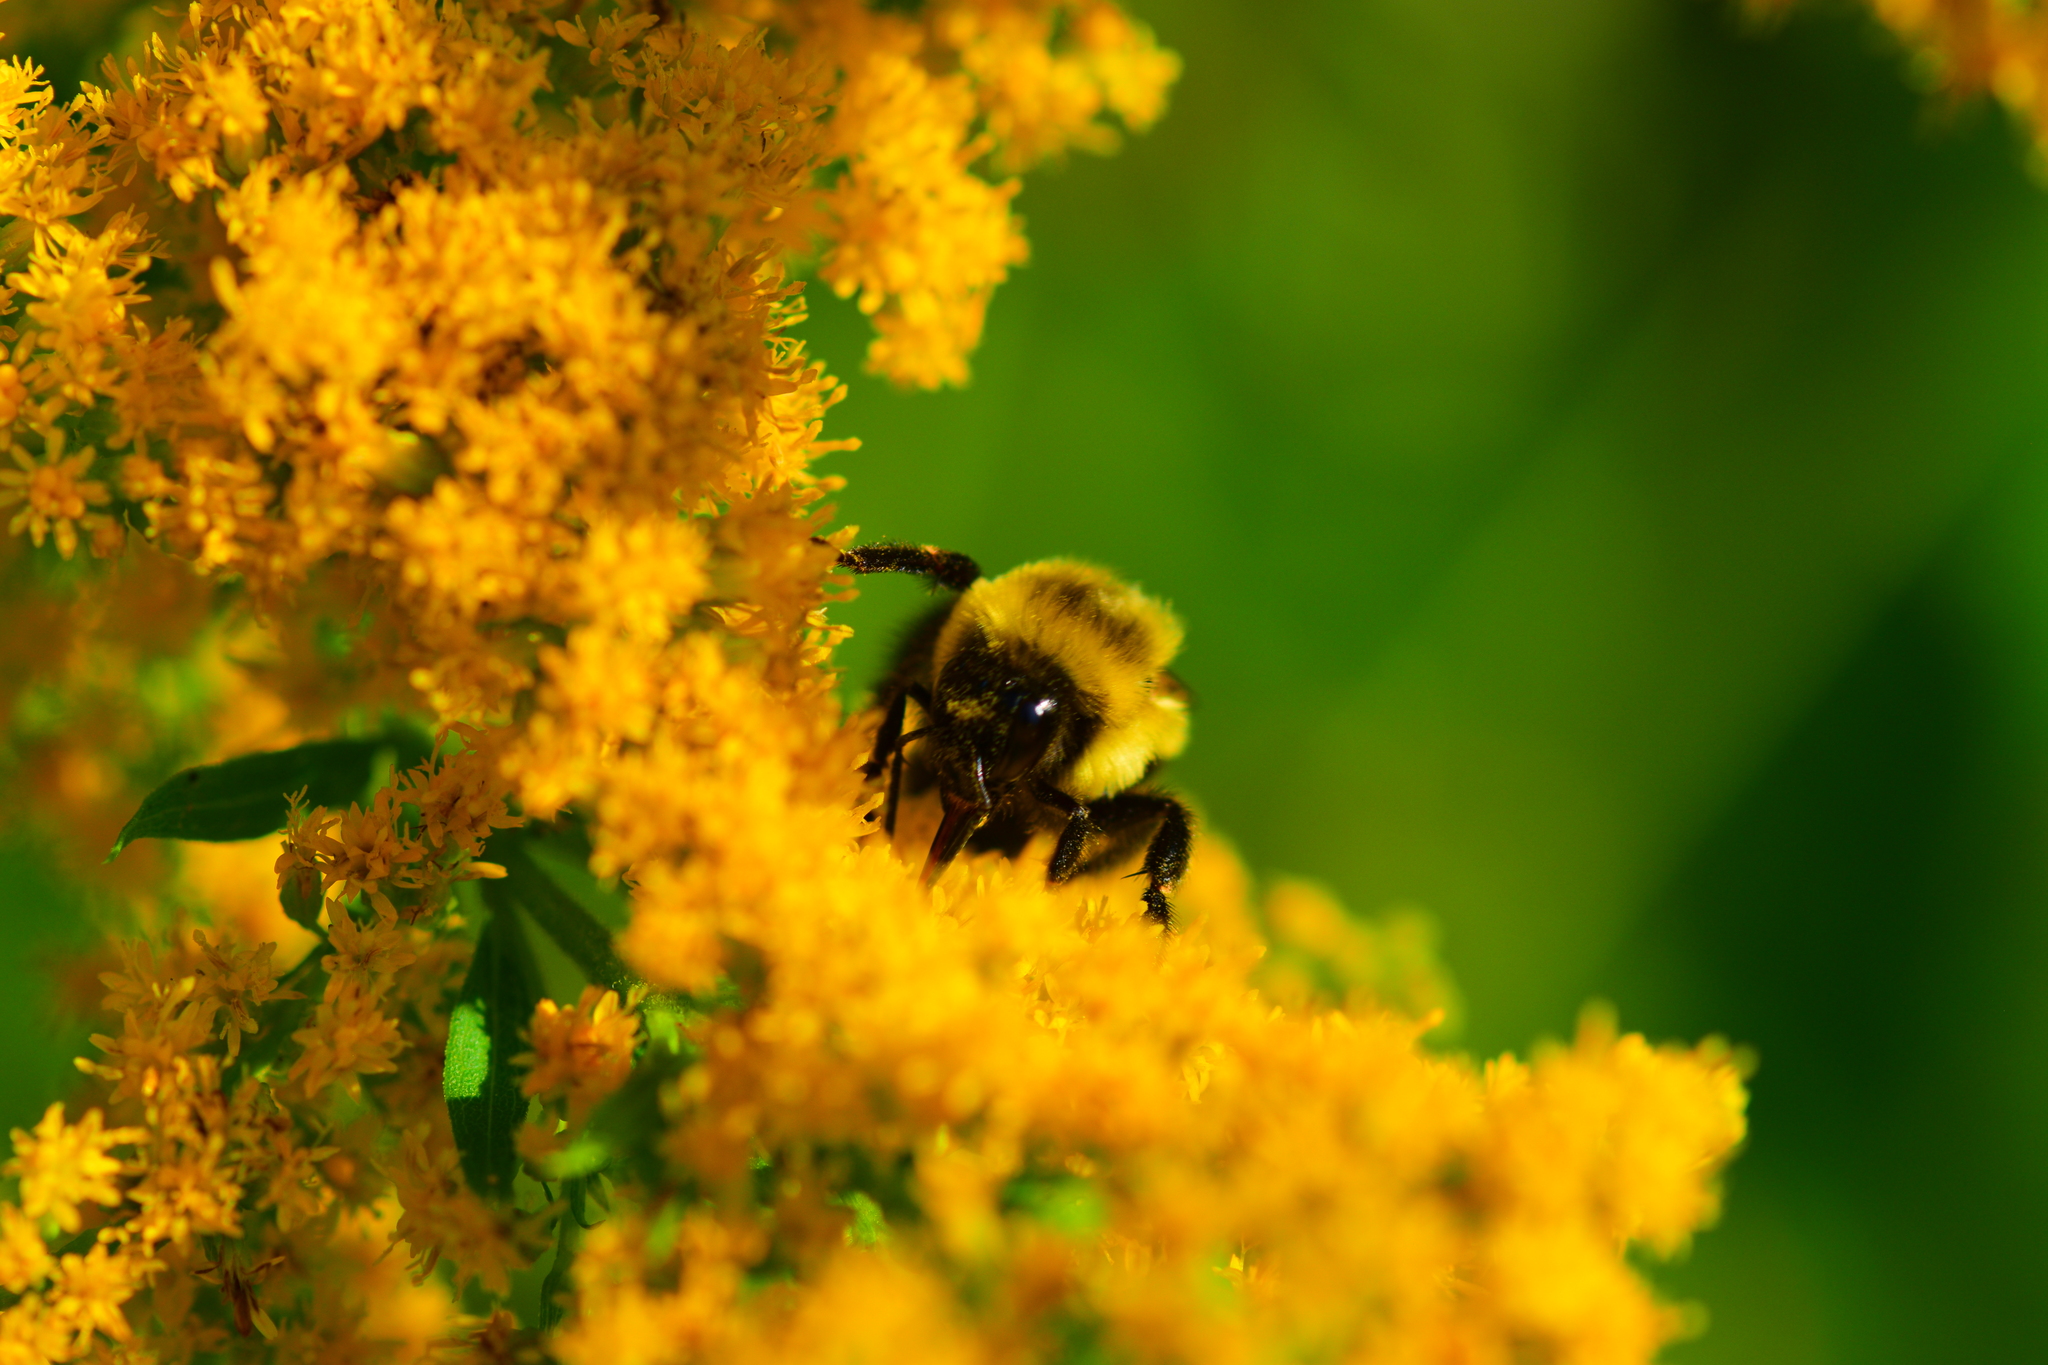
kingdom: Animalia
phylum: Arthropoda
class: Insecta
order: Hymenoptera
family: Apidae
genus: Bombus
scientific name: Bombus impatiens
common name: Common eastern bumble bee
